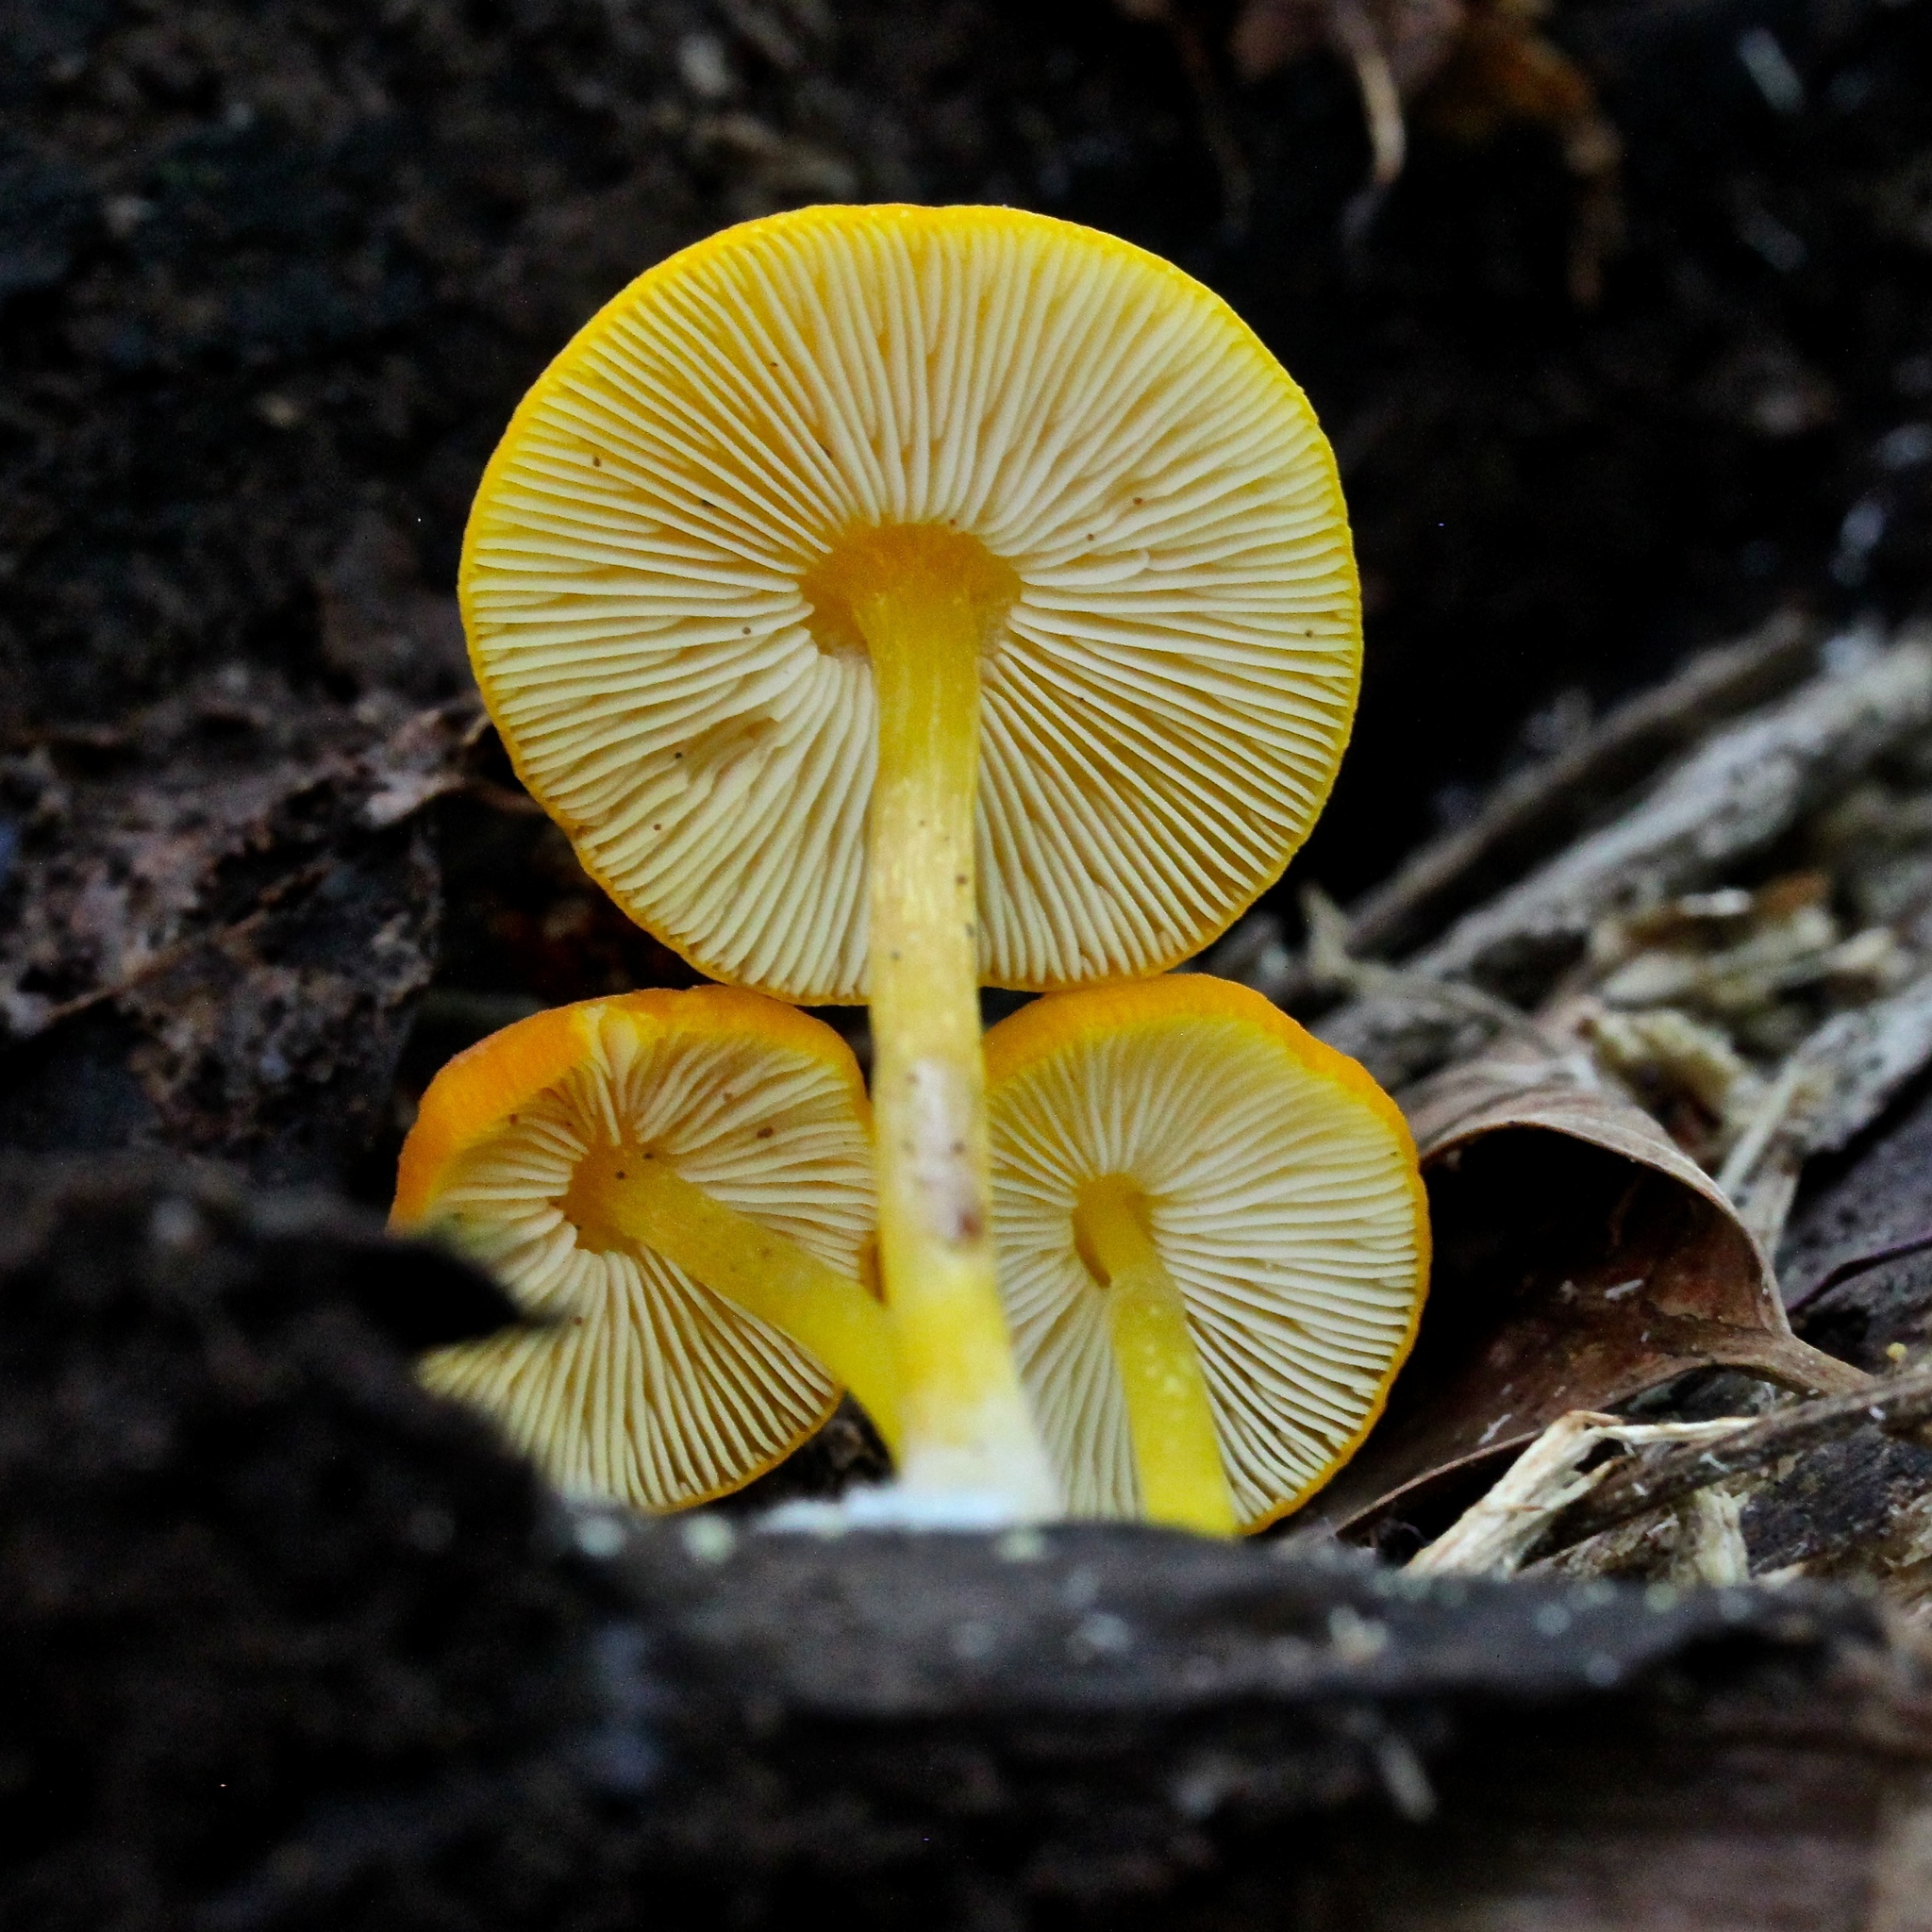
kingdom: Fungi
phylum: Basidiomycota
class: Agaricomycetes
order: Agaricales
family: Pluteaceae
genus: Pluteus
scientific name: Pluteus chrysophlebius
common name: Yellow deer mushroom
